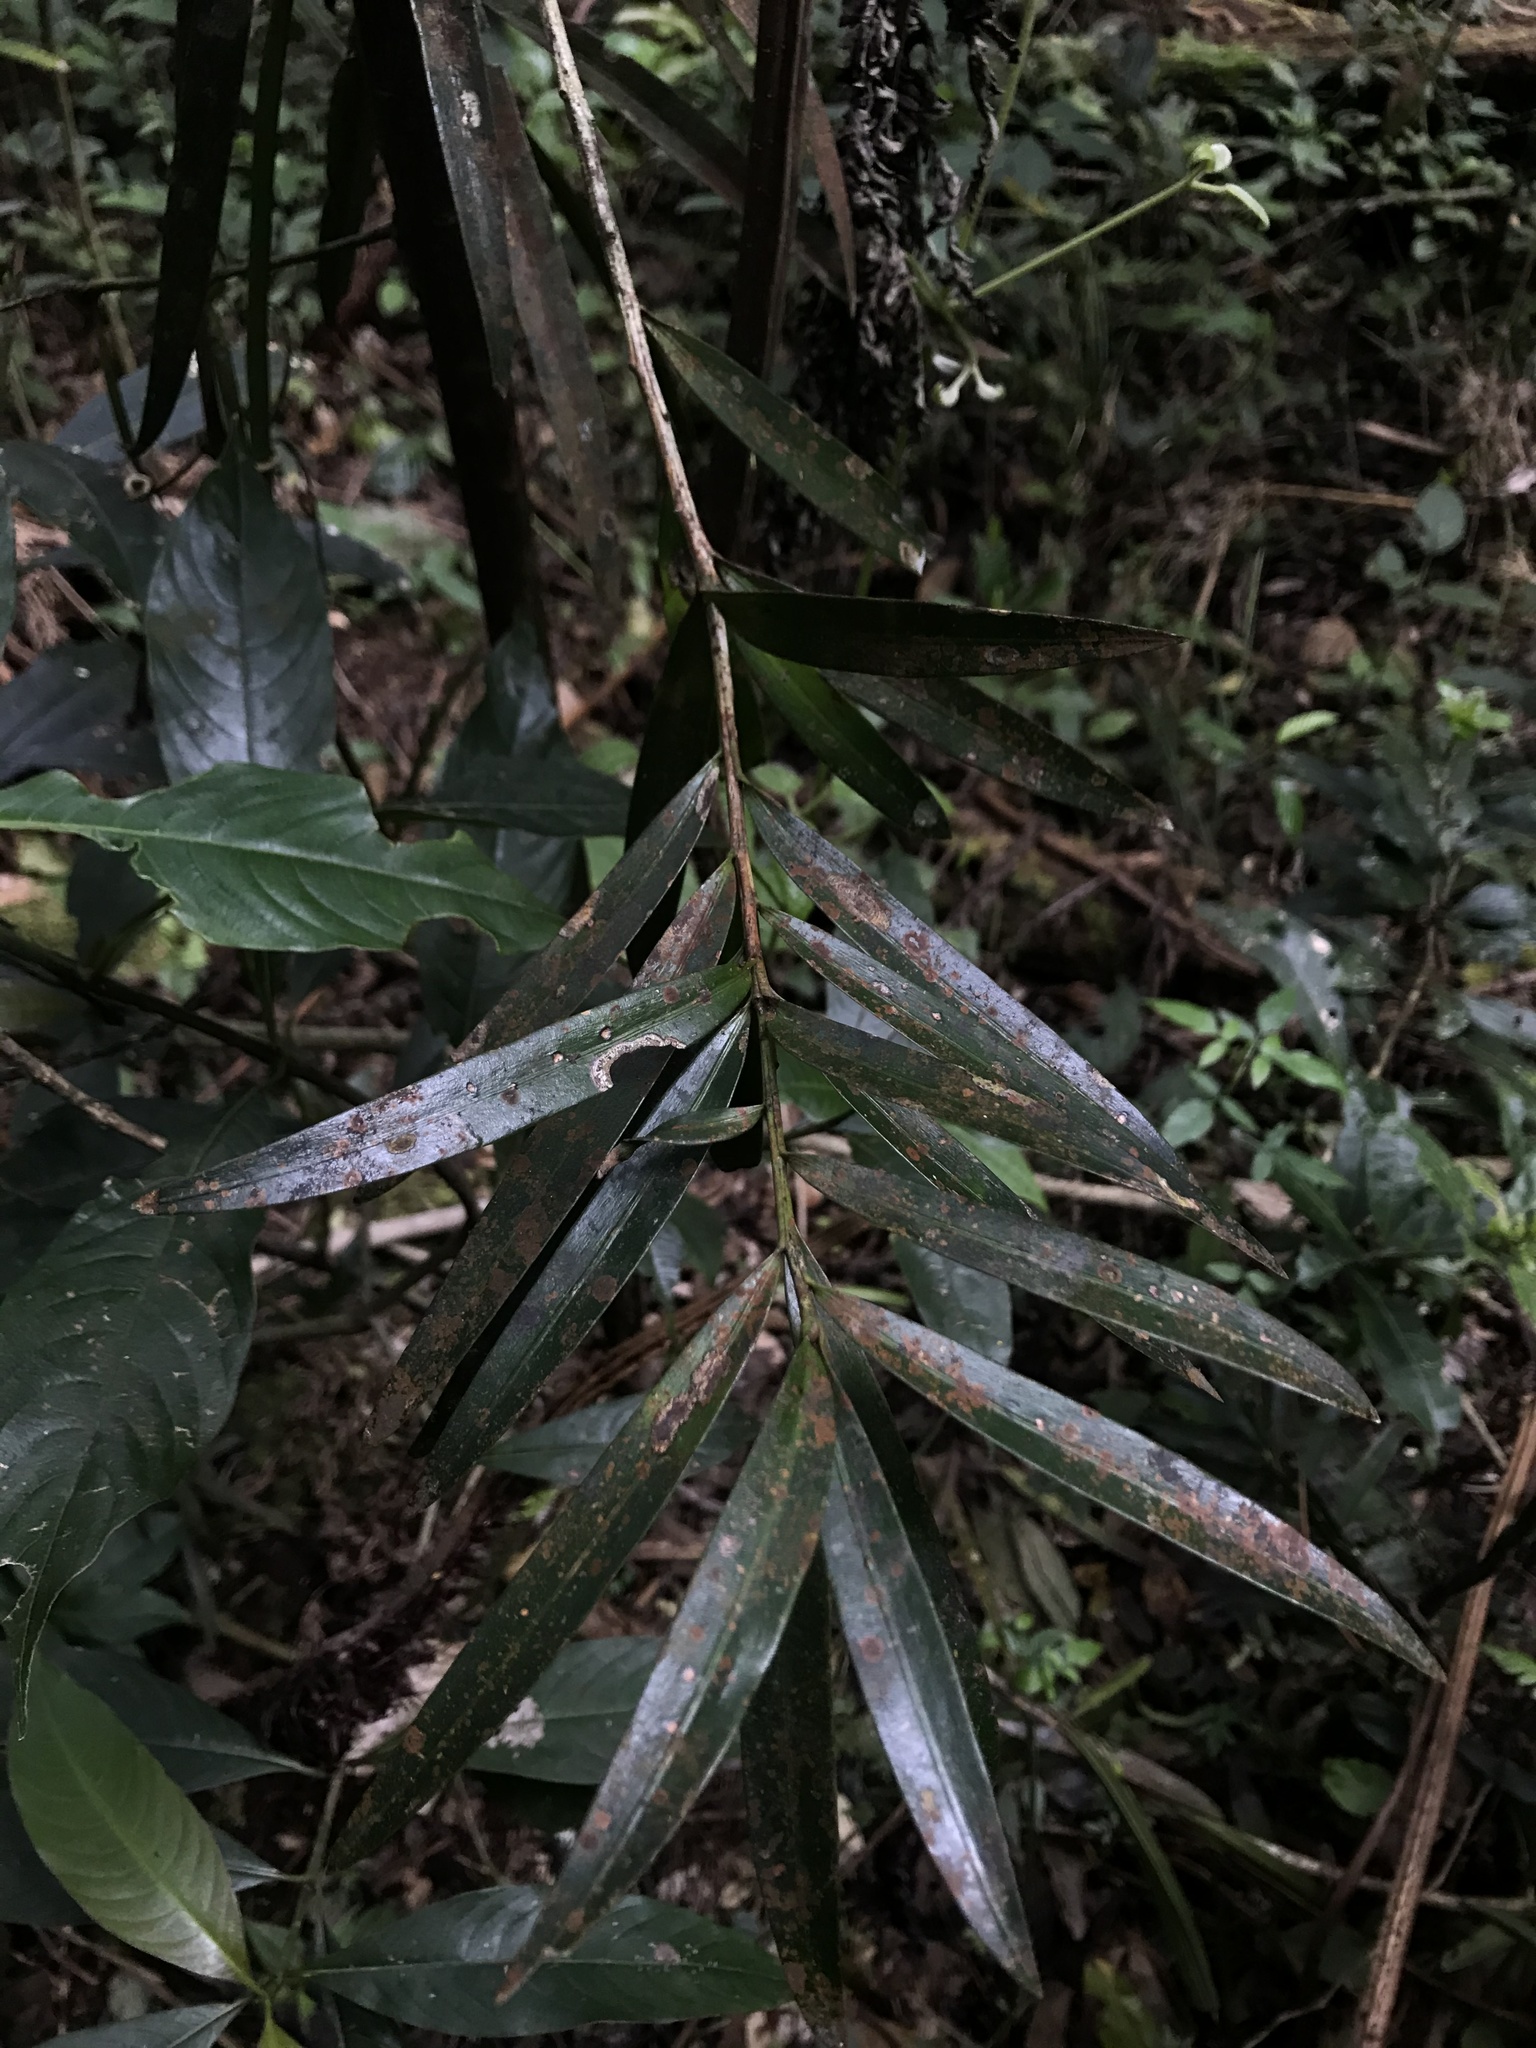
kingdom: Plantae
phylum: Tracheophyta
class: Pinopsida
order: Pinales
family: Podocarpaceae
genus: Podocarpus
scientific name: Podocarpus oleifolius
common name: Olive-leaf podoberry
